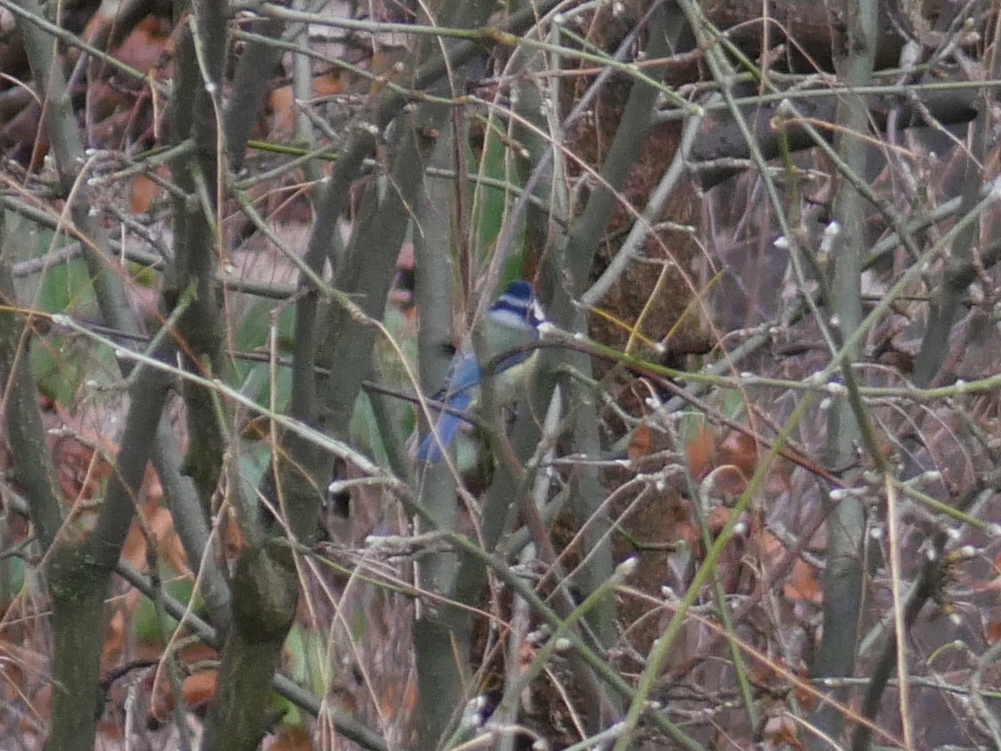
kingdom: Animalia
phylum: Chordata
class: Aves
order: Passeriformes
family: Paridae
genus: Cyanistes
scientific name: Cyanistes caeruleus
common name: Eurasian blue tit
